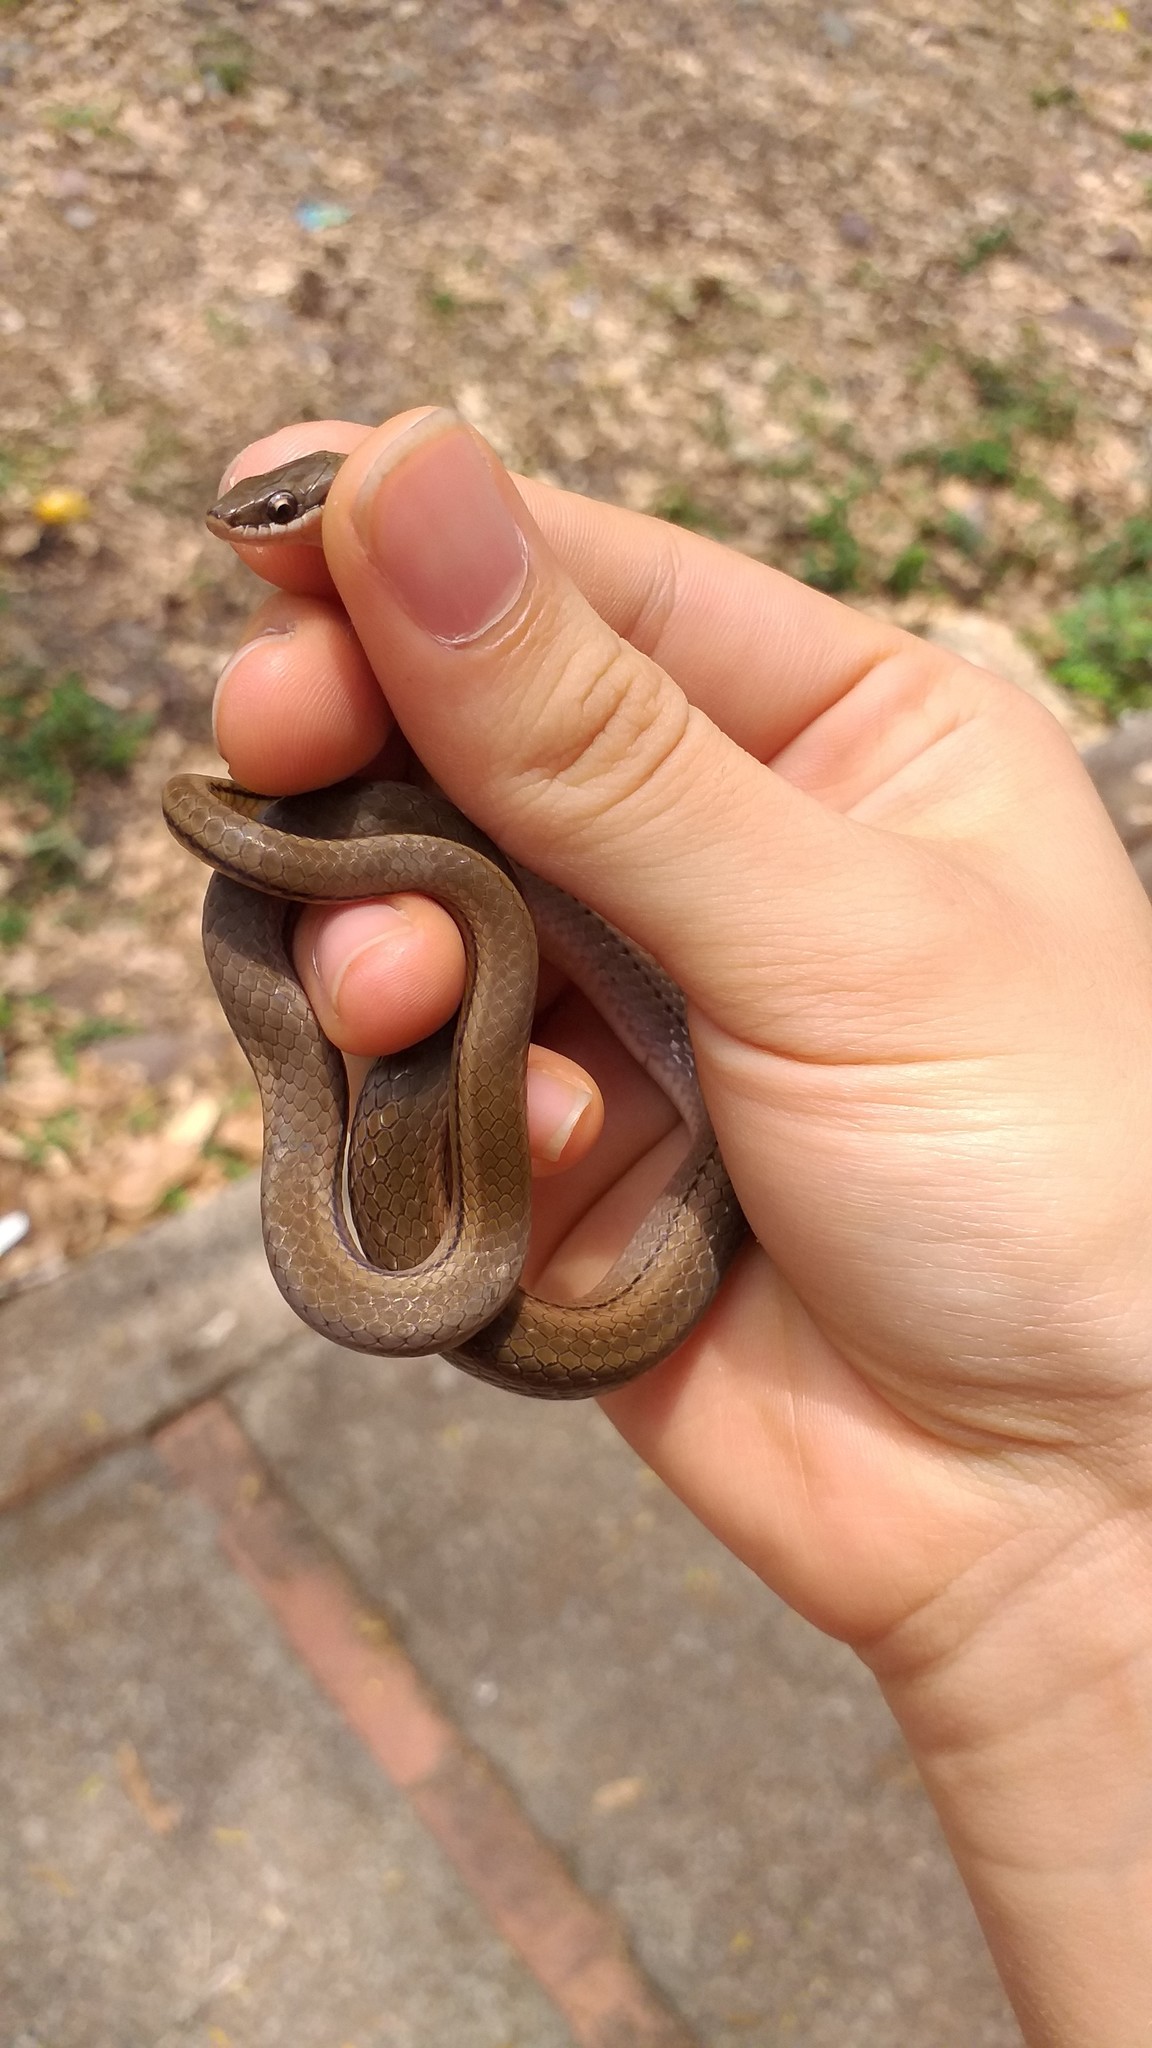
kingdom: Animalia
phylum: Chordata
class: Squamata
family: Colubridae
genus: Erythrolamprus
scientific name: Erythrolamprus reginae
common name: Royal ground snake
